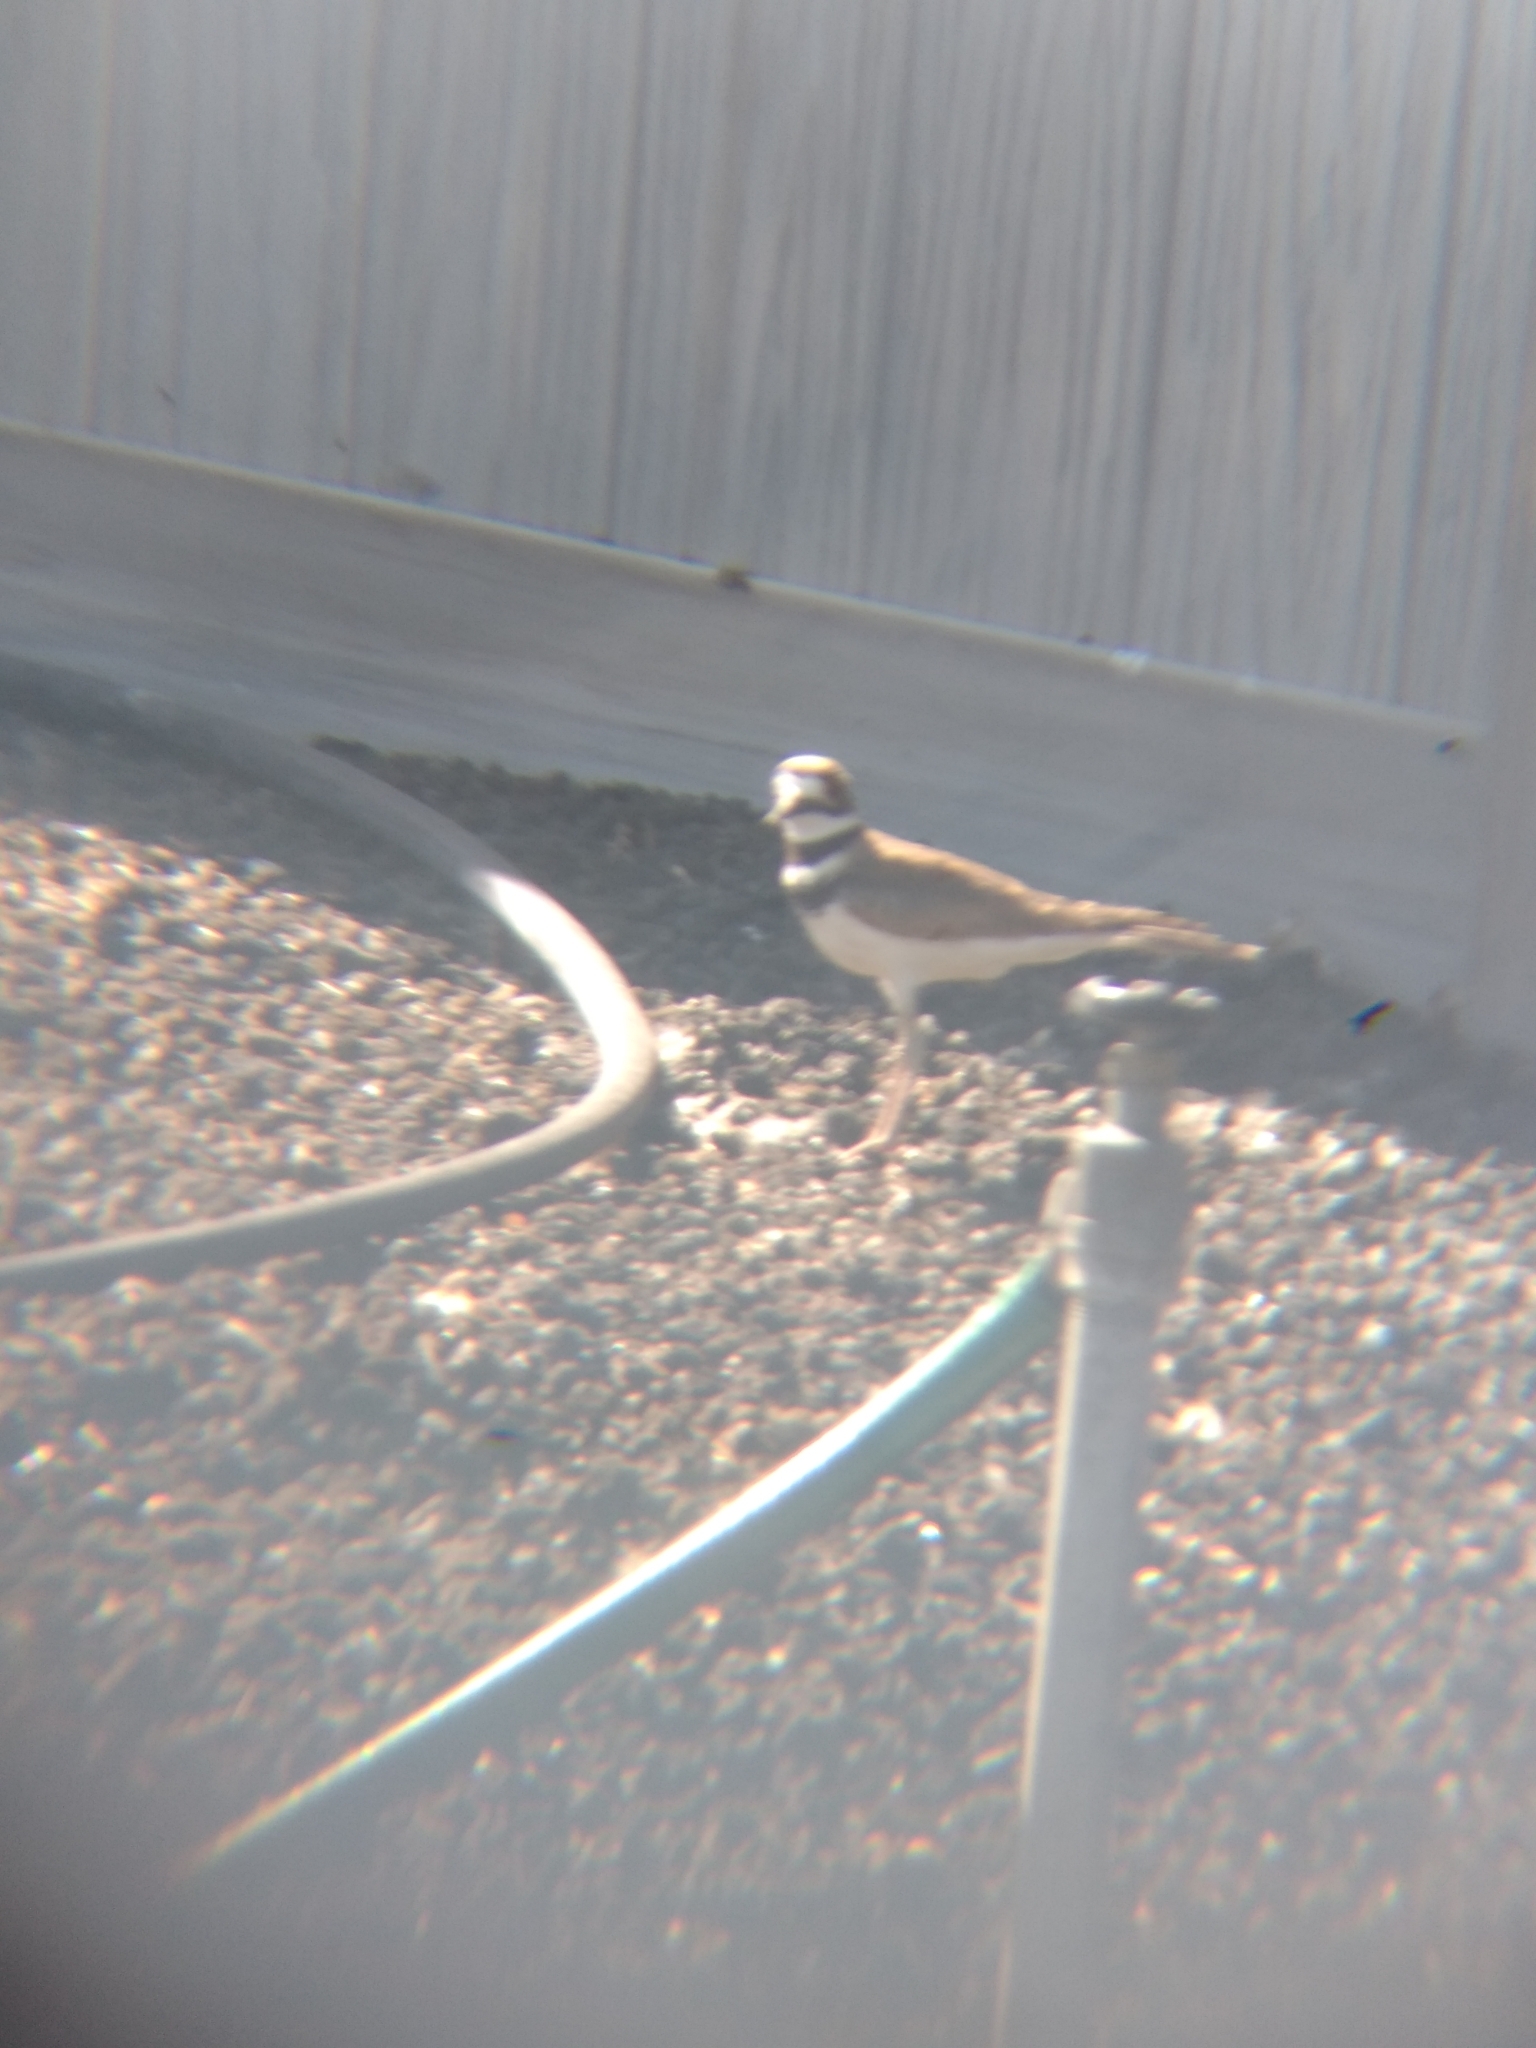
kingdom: Animalia
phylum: Chordata
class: Aves
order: Charadriiformes
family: Charadriidae
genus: Charadrius
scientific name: Charadrius vociferus
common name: Killdeer
